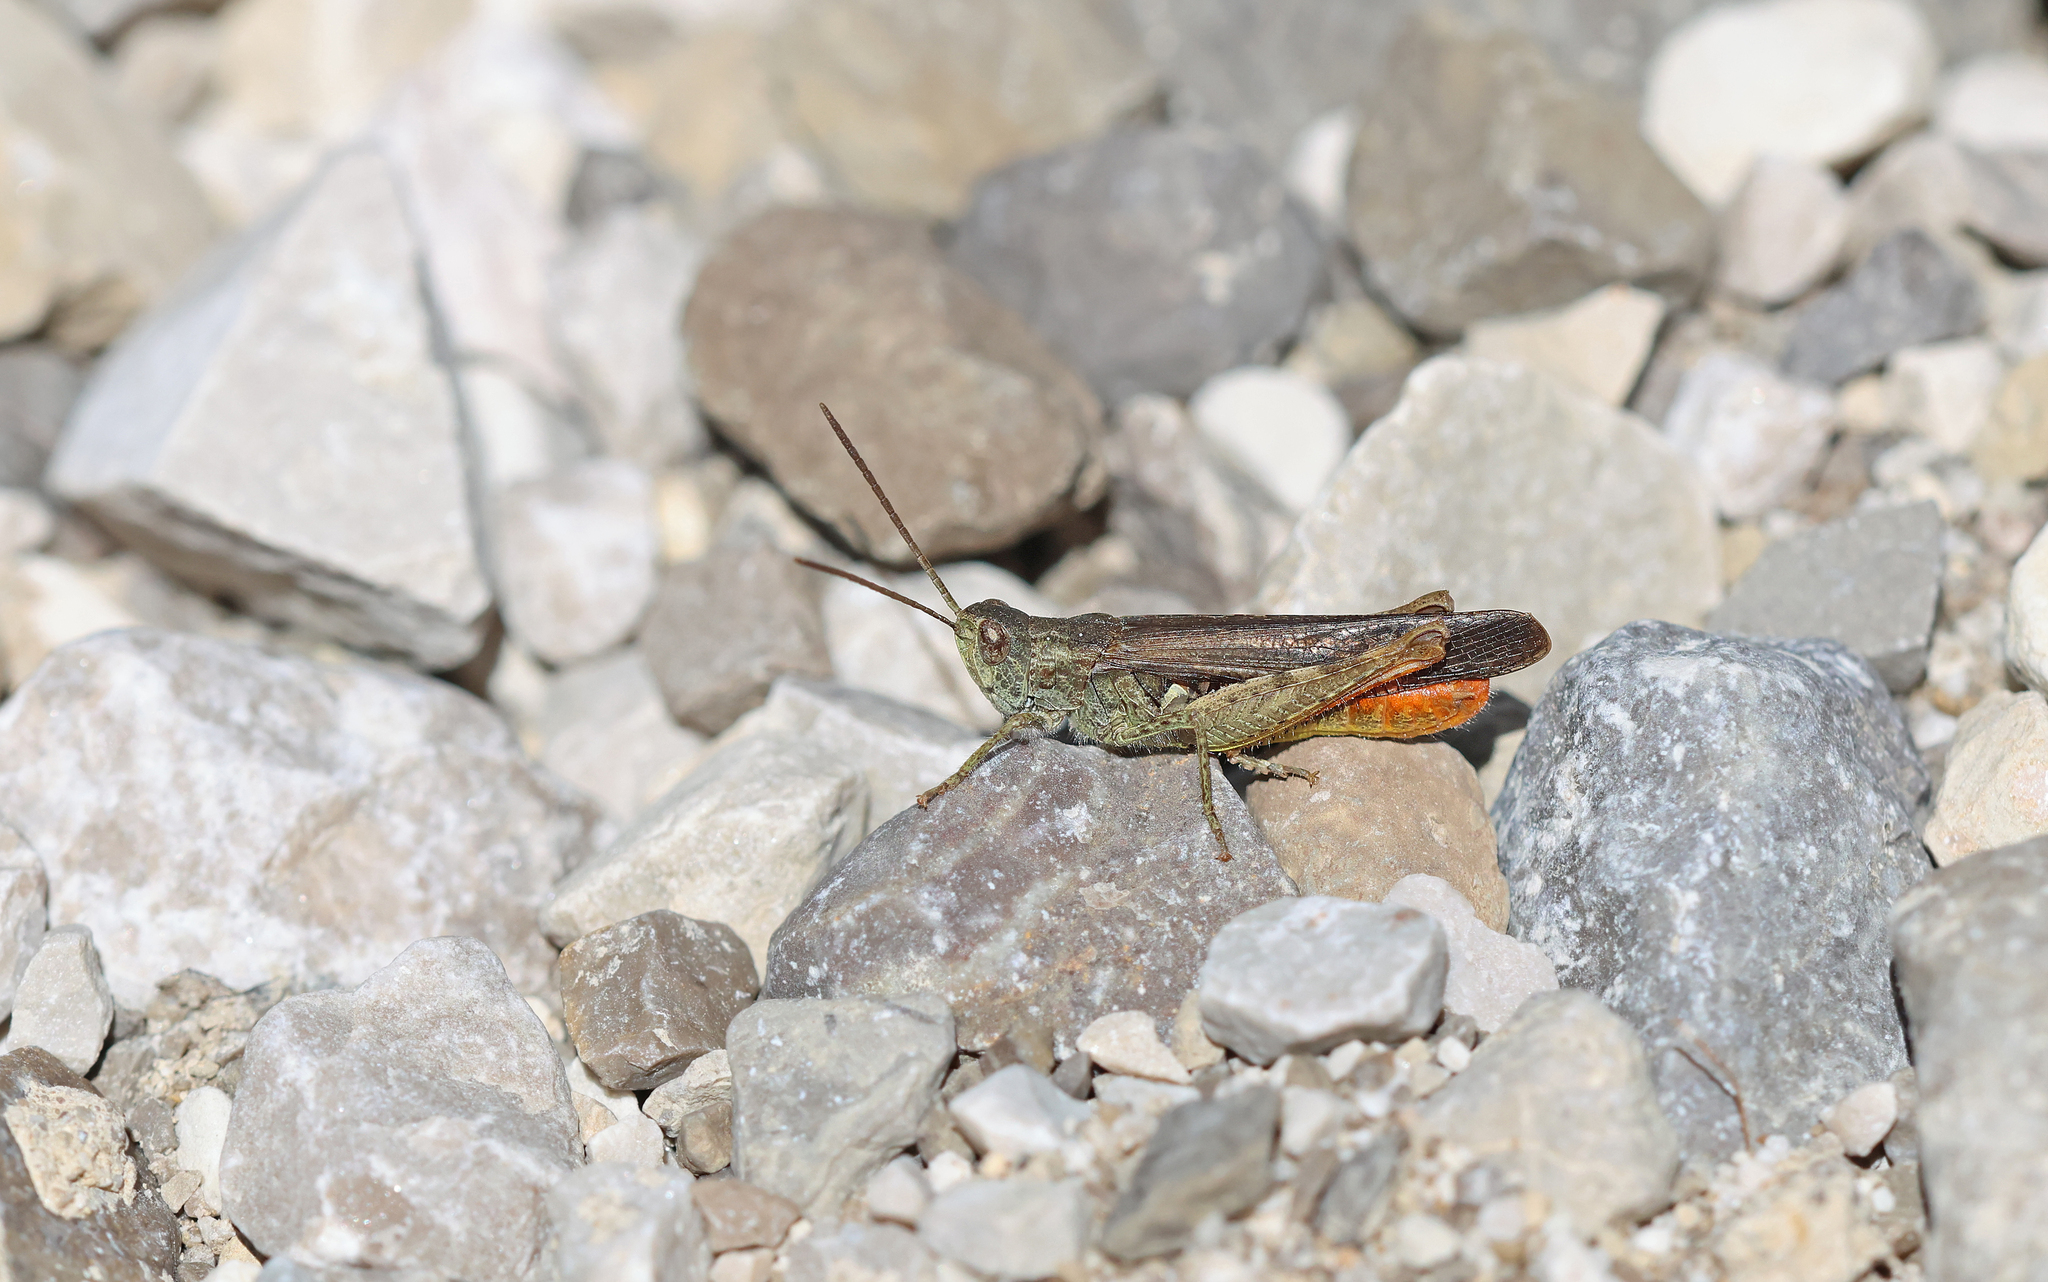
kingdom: Animalia
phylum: Arthropoda
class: Insecta
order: Orthoptera
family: Acrididae
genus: Chorthippus
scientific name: Chorthippus brunneus
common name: Field grasshopper
